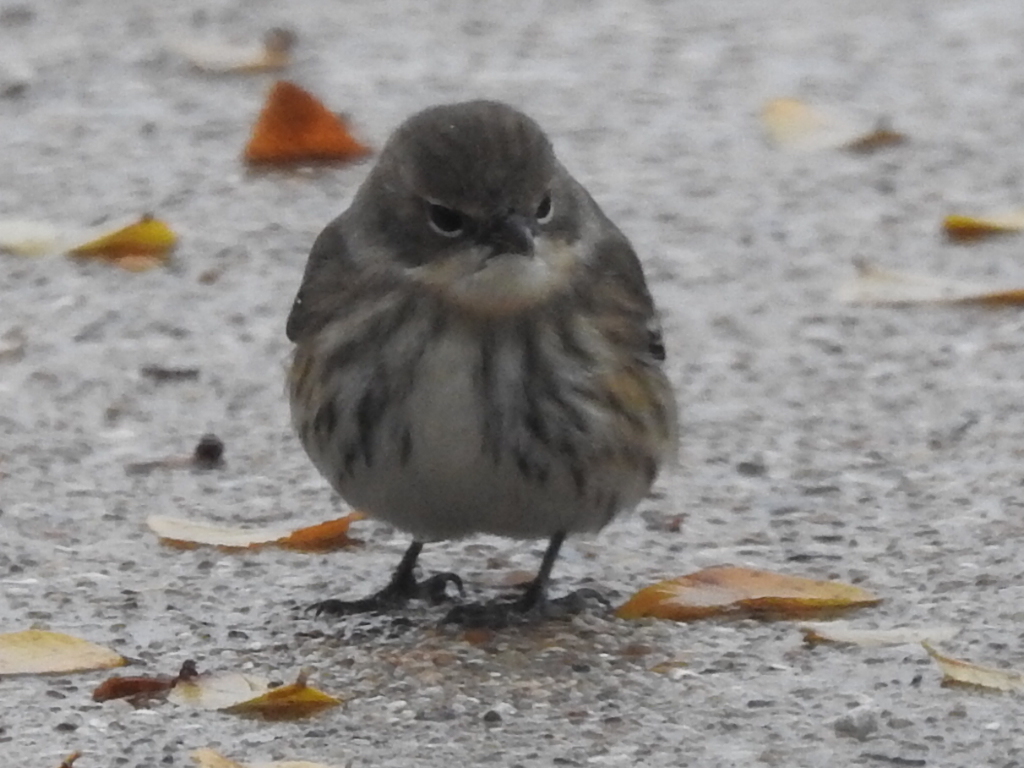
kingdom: Animalia
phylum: Chordata
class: Aves
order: Passeriformes
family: Parulidae
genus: Setophaga
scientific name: Setophaga coronata
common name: Myrtle warbler
